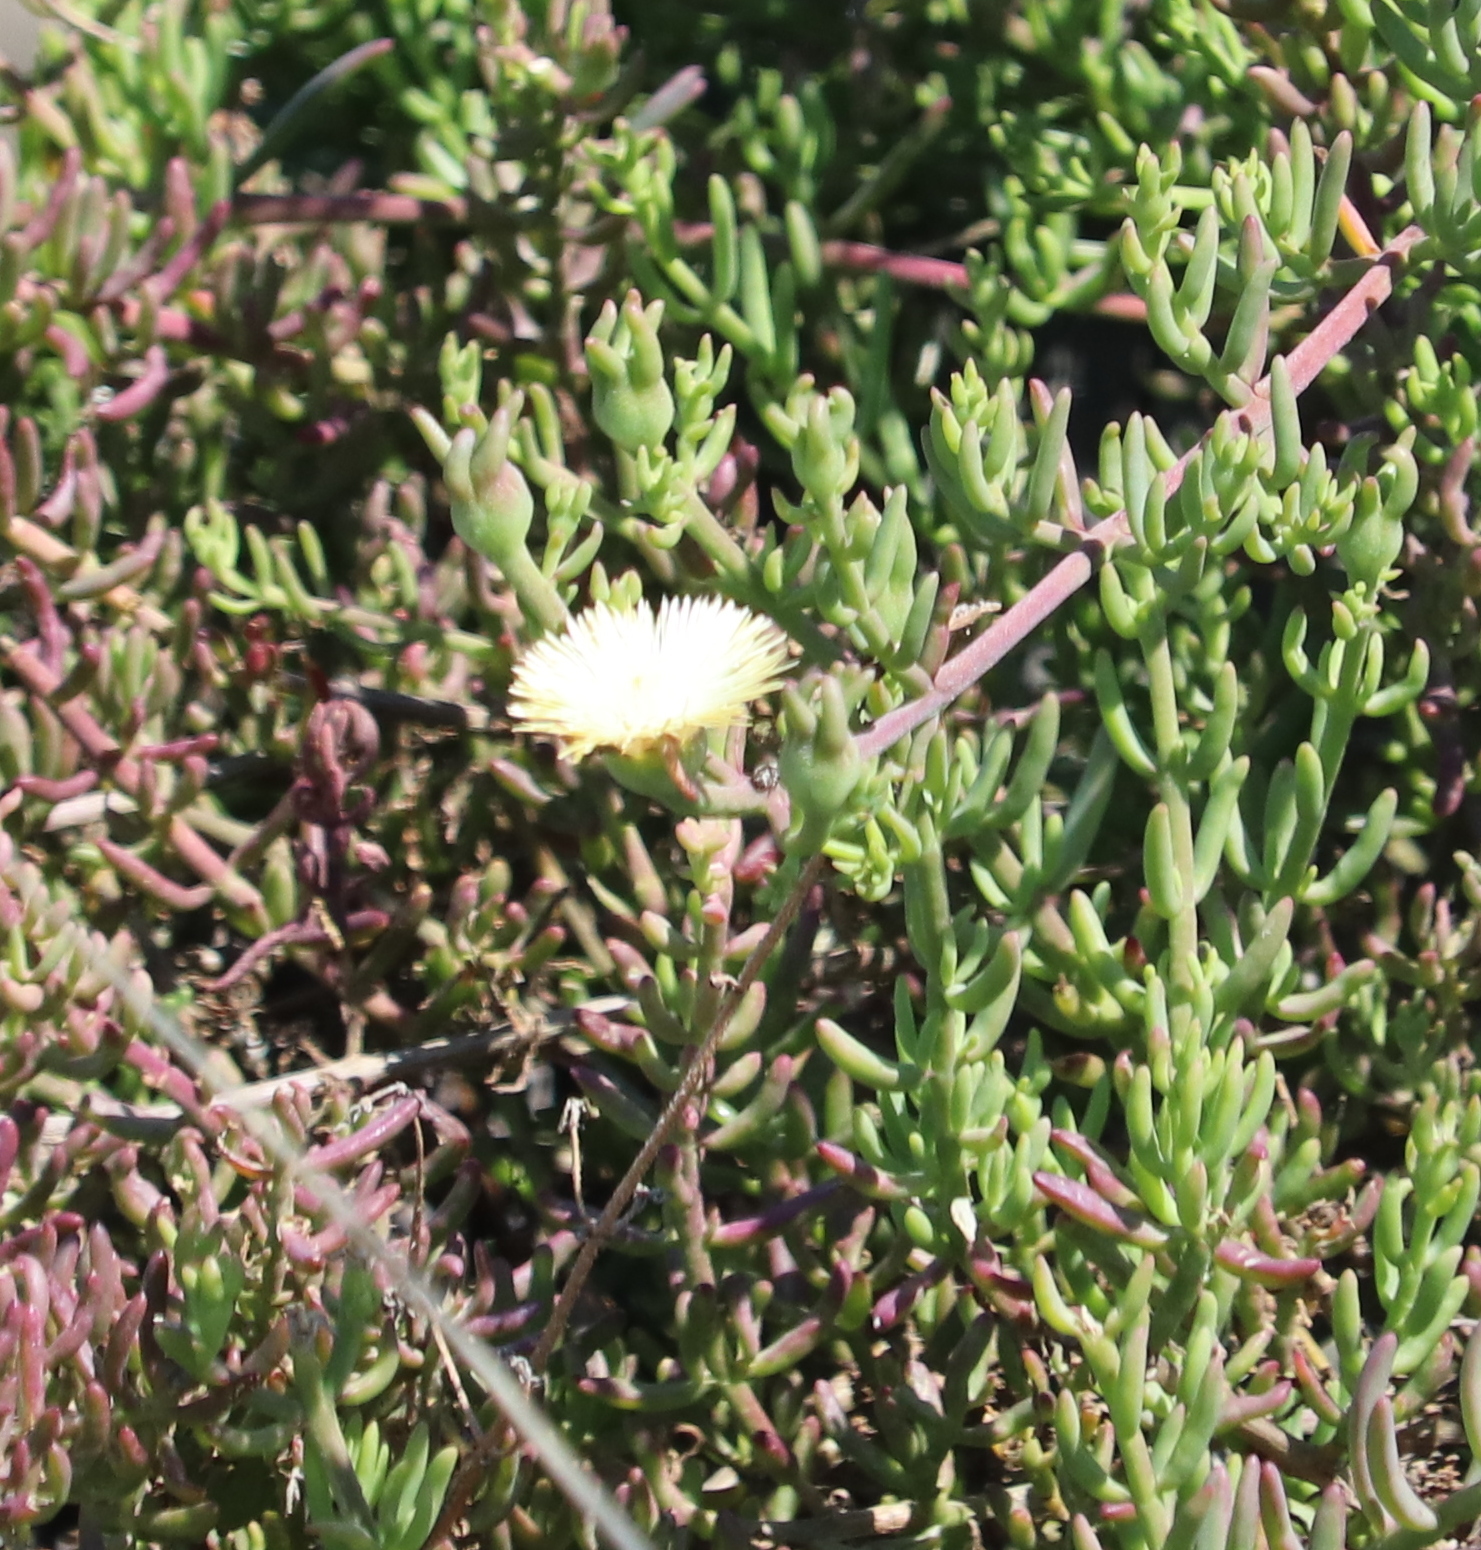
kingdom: Plantae
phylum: Tracheophyta
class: Magnoliopsida
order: Caryophyllales
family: Aizoaceae
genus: Mesembryanthemum
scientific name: Mesembryanthemum splendens
